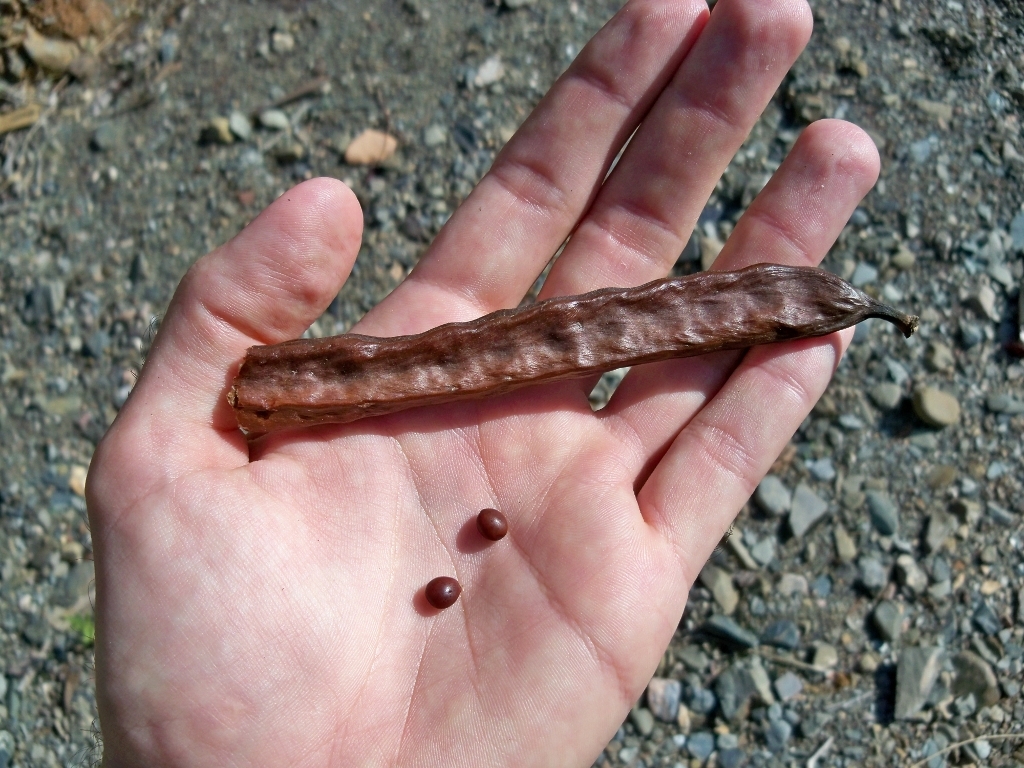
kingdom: Plantae
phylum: Tracheophyta
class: Magnoliopsida
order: Fabales
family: Fabaceae
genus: Ceratonia
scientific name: Ceratonia siliqua
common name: Carob
